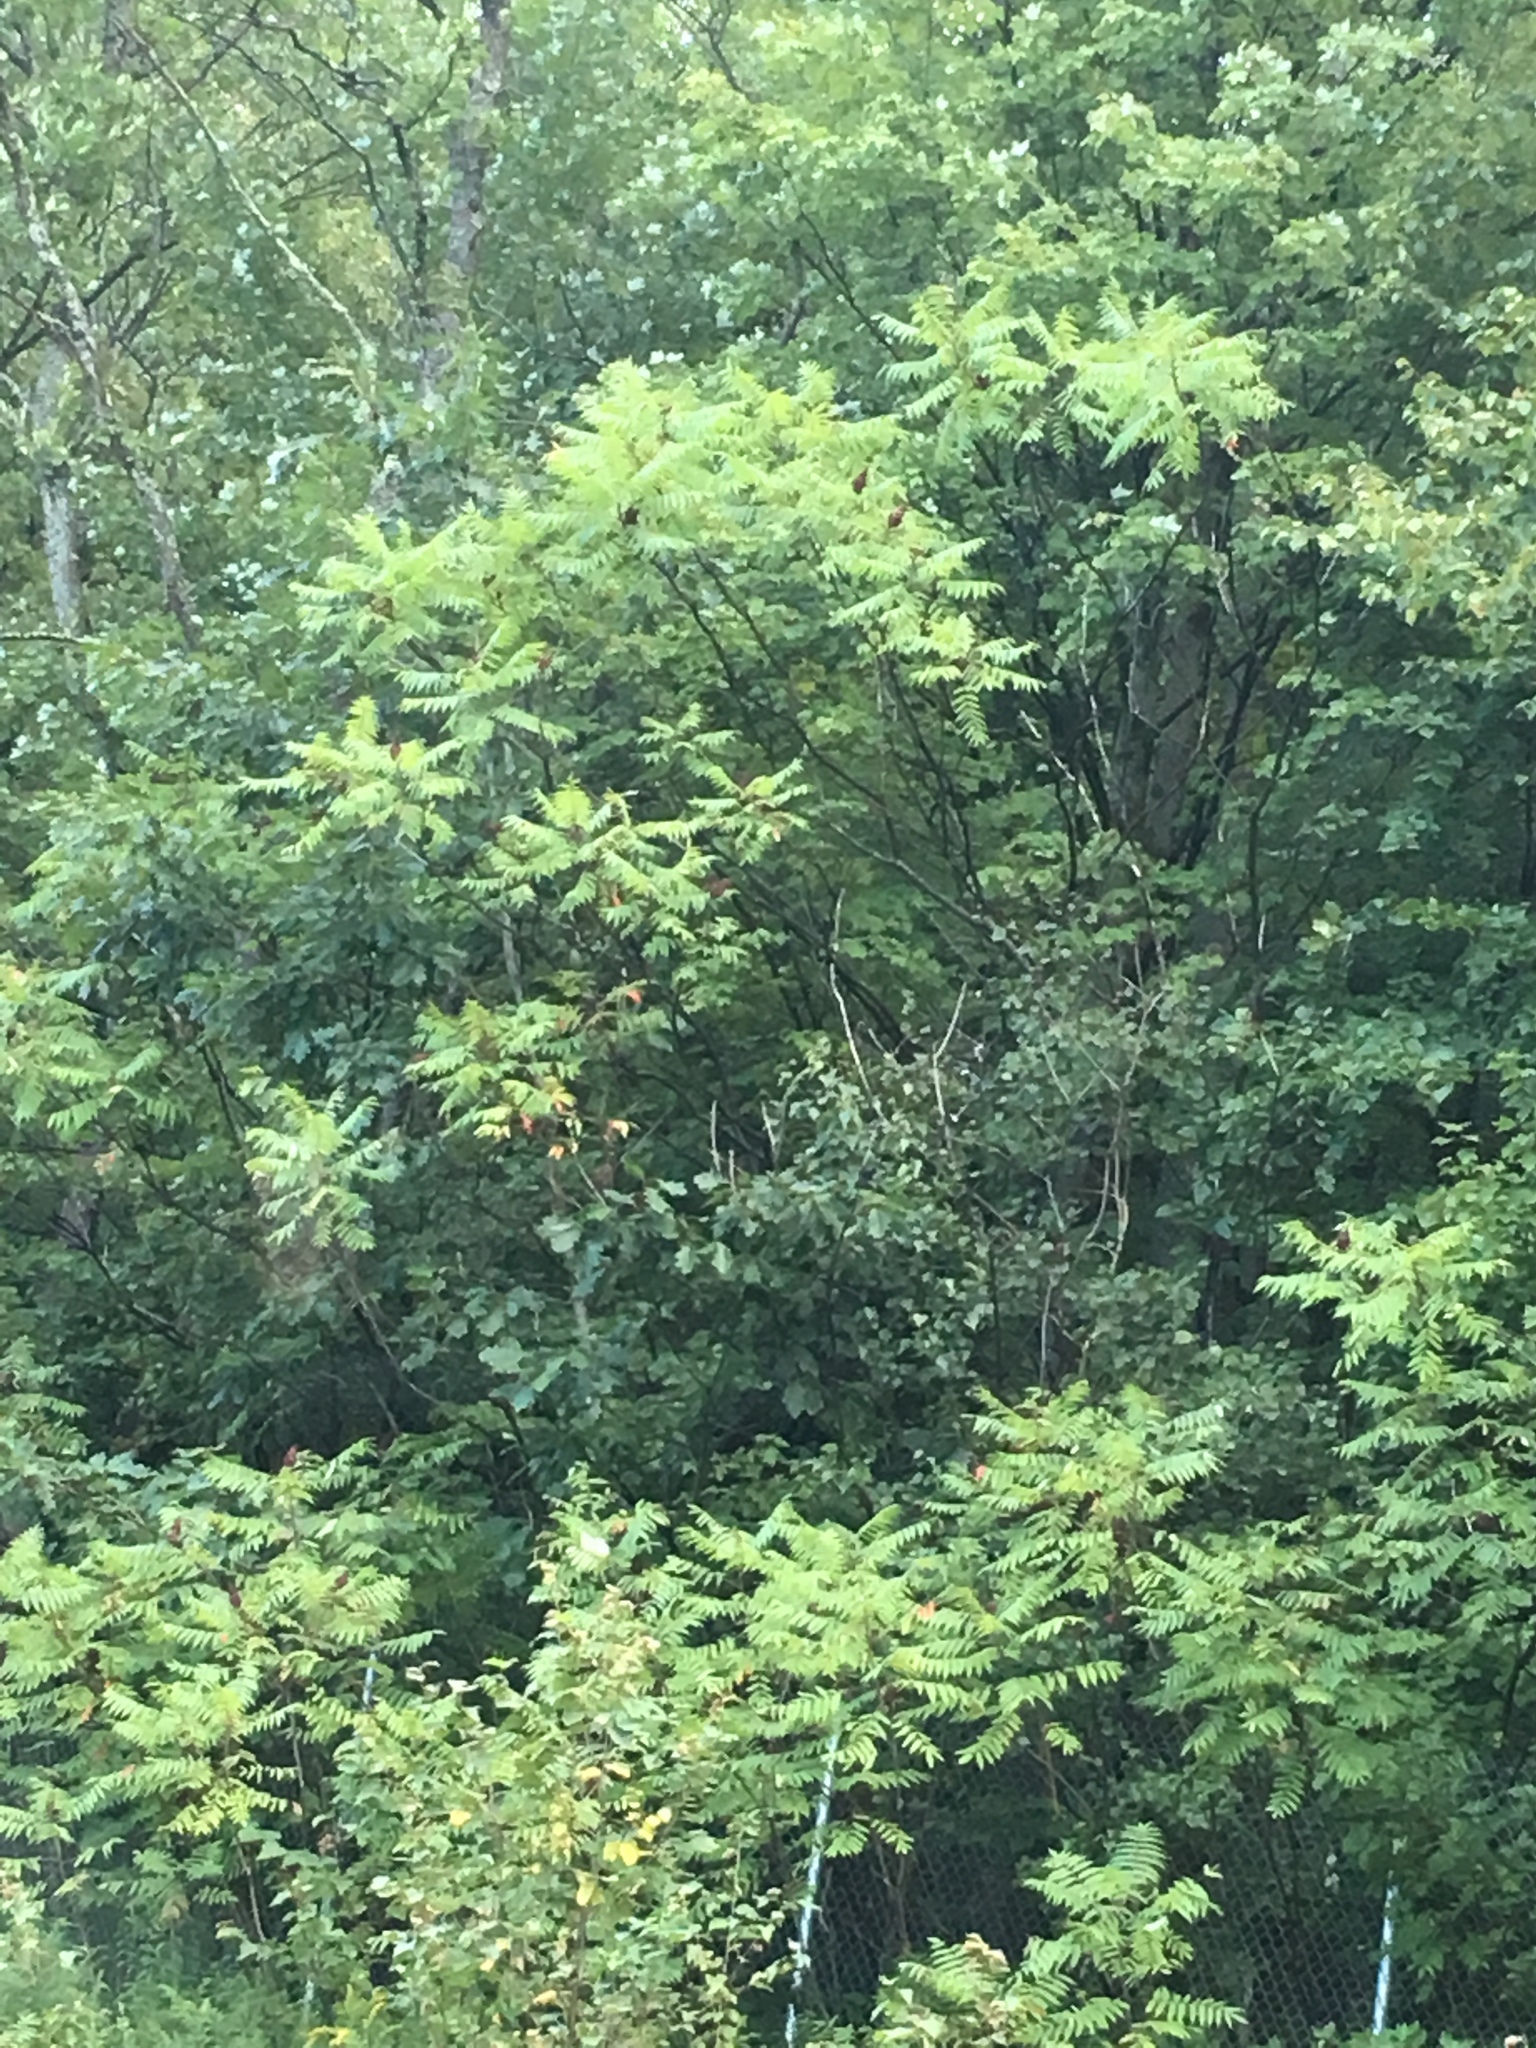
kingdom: Plantae
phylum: Tracheophyta
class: Magnoliopsida
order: Sapindales
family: Anacardiaceae
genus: Rhus
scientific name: Rhus typhina
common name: Staghorn sumac
